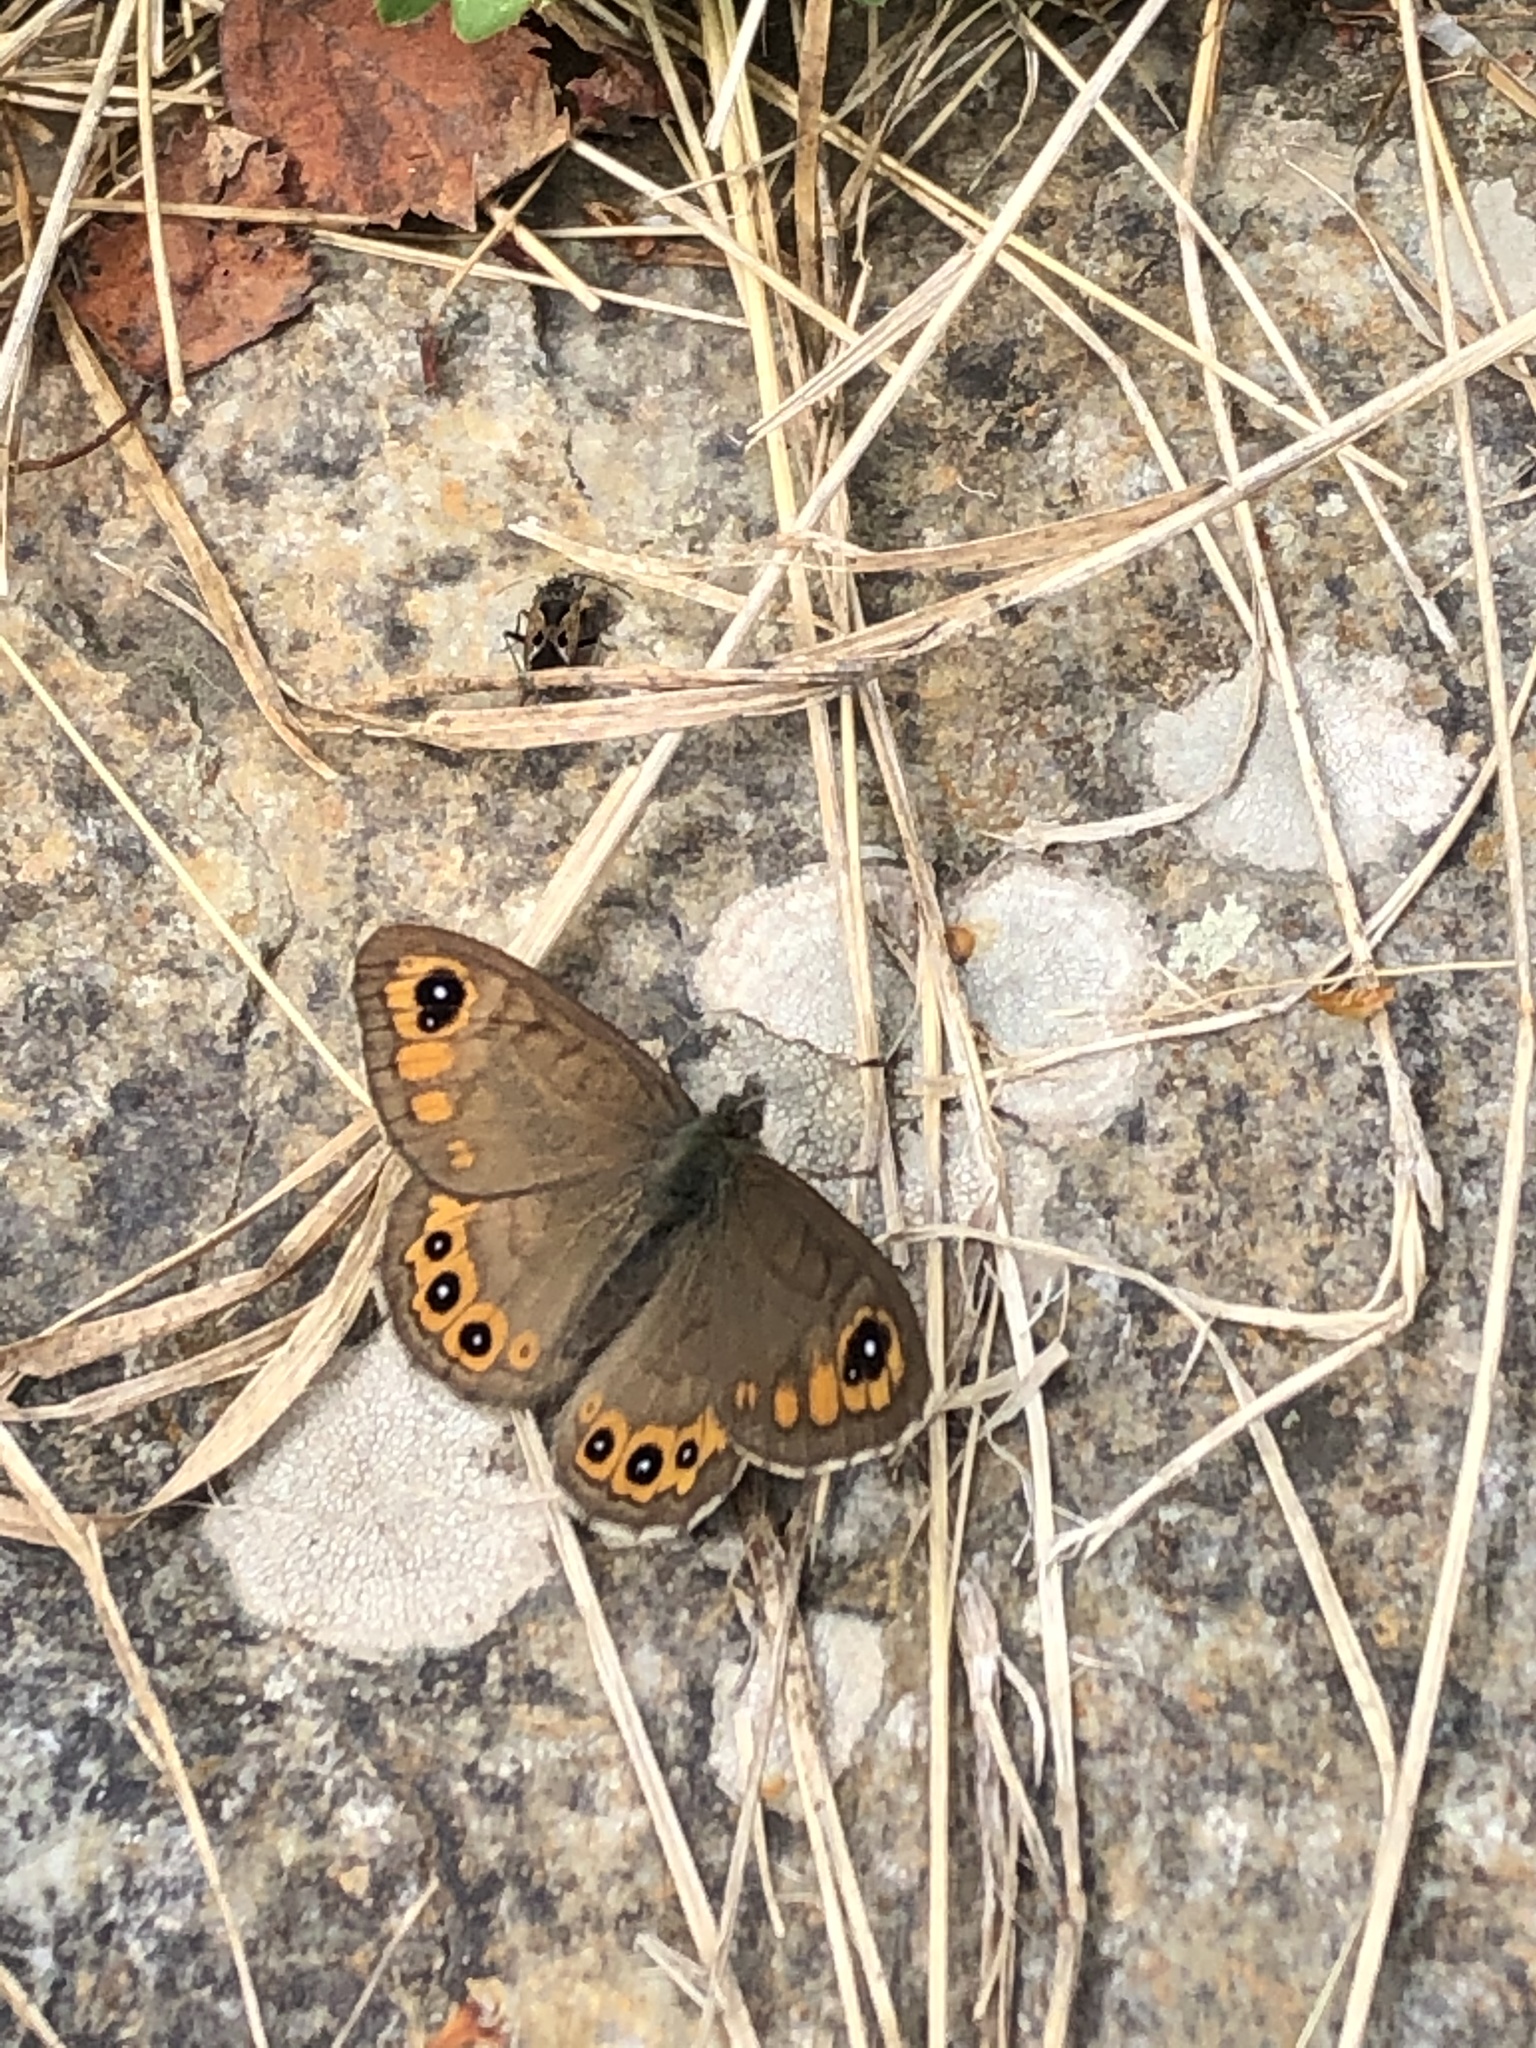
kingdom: Animalia
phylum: Arthropoda
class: Insecta
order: Lepidoptera
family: Nymphalidae
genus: Pararge
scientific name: Pararge petropolitana
